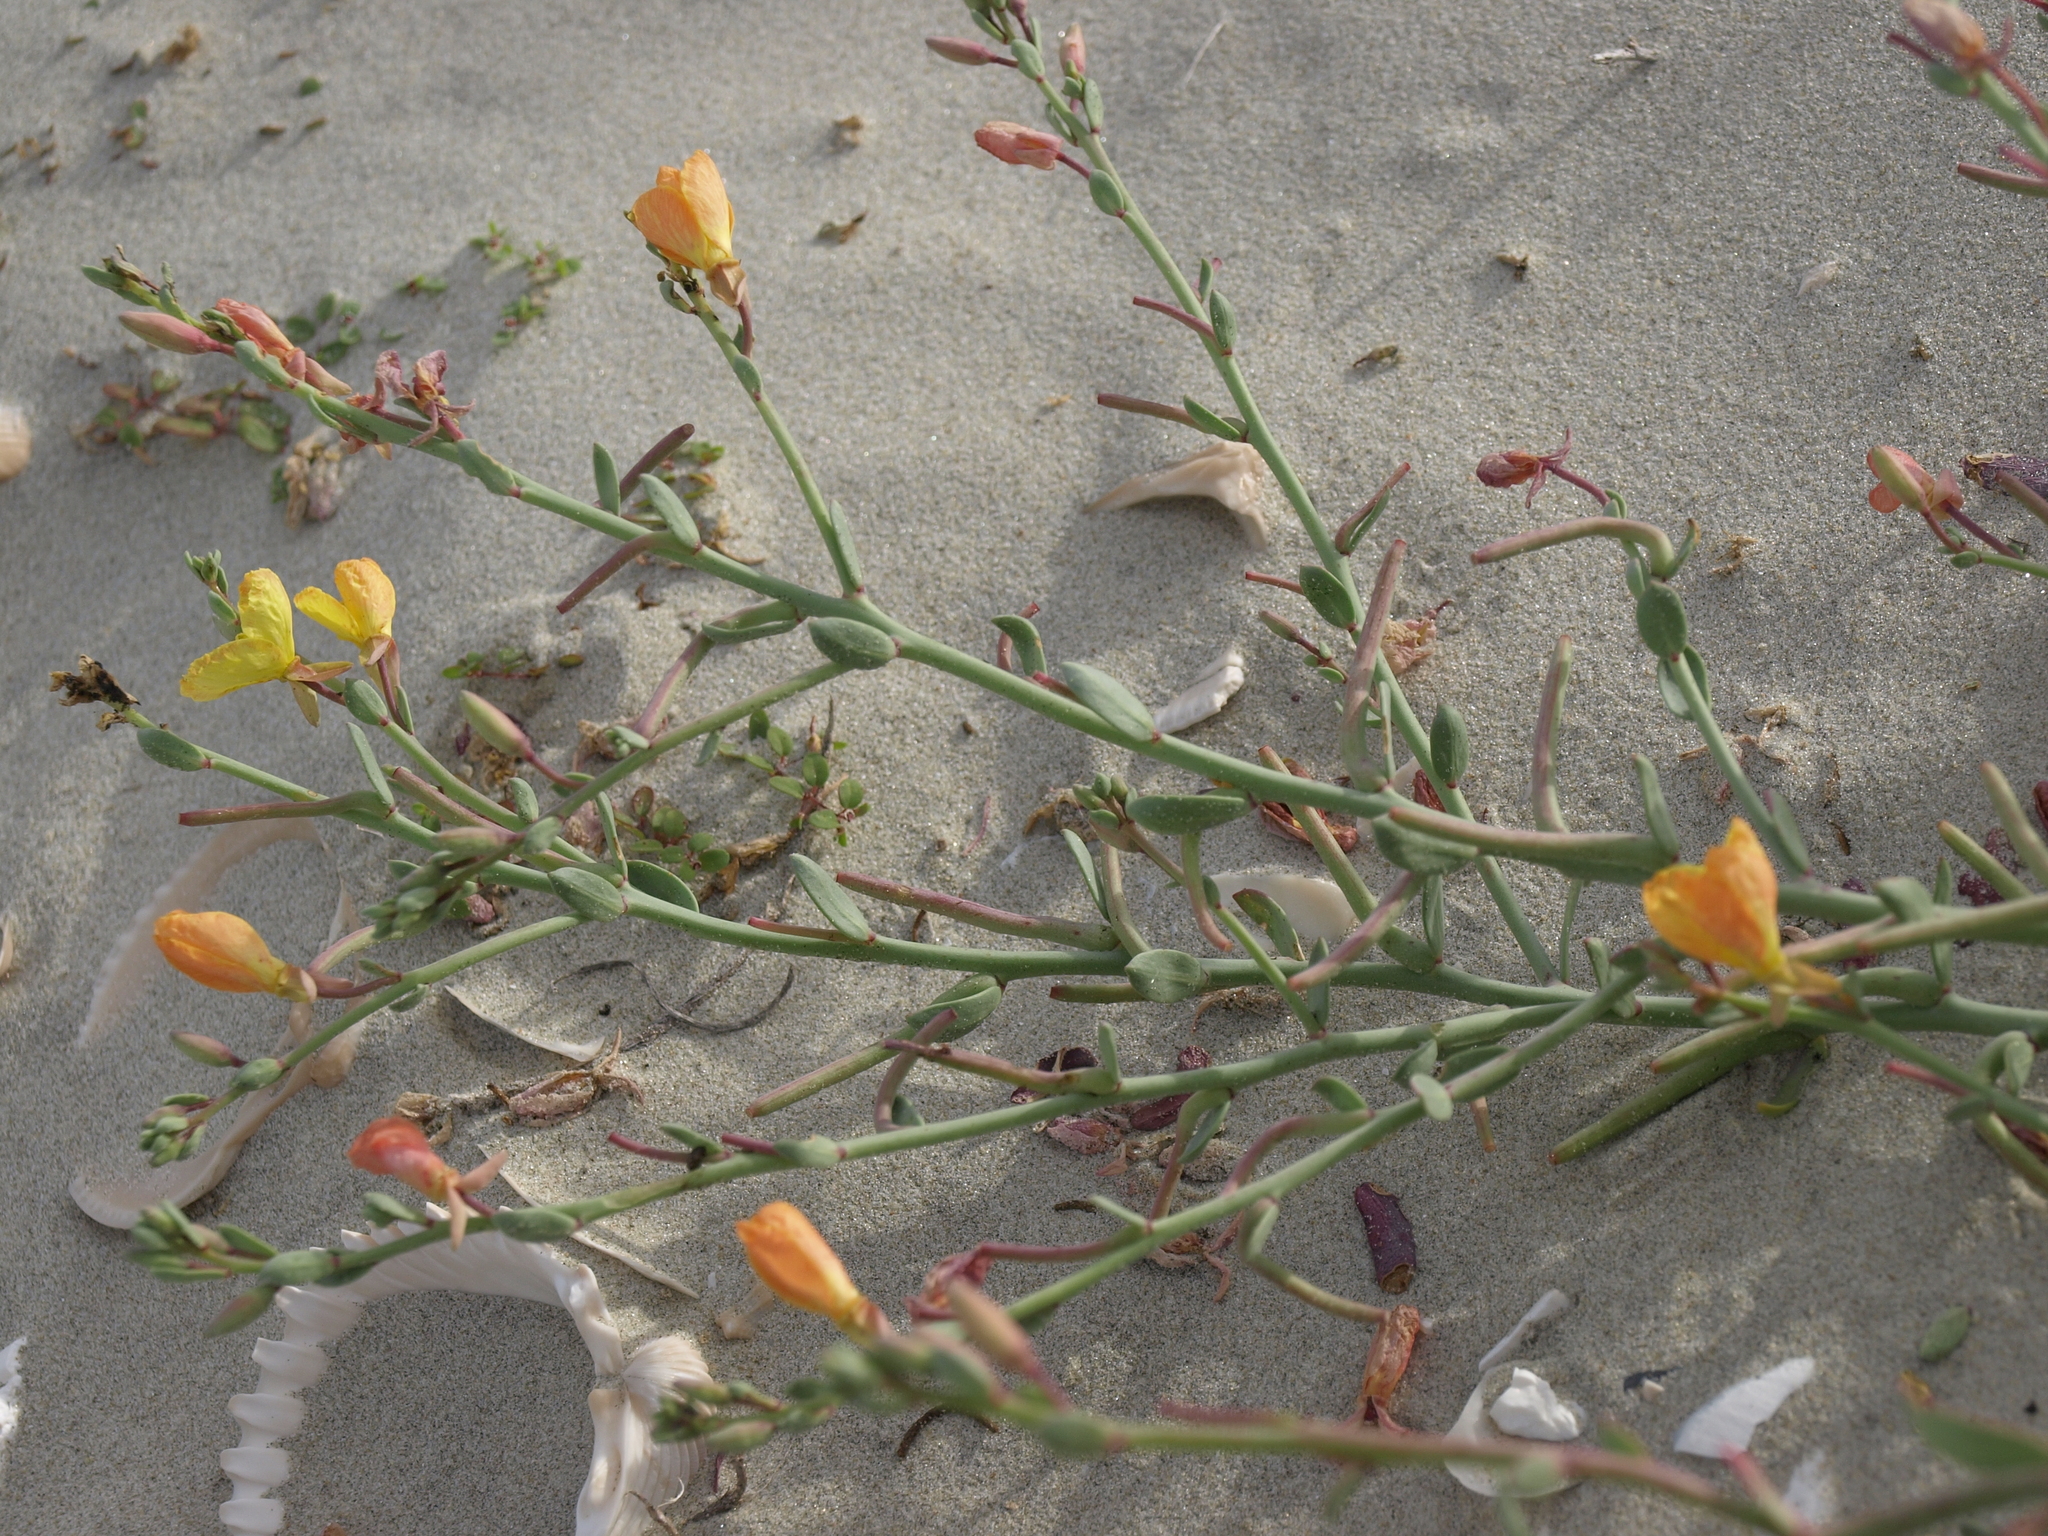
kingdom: Plantae
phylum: Tracheophyta
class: Magnoliopsida
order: Myrtales
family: Onagraceae
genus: Eulobus
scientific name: Eulobus crassifolius
